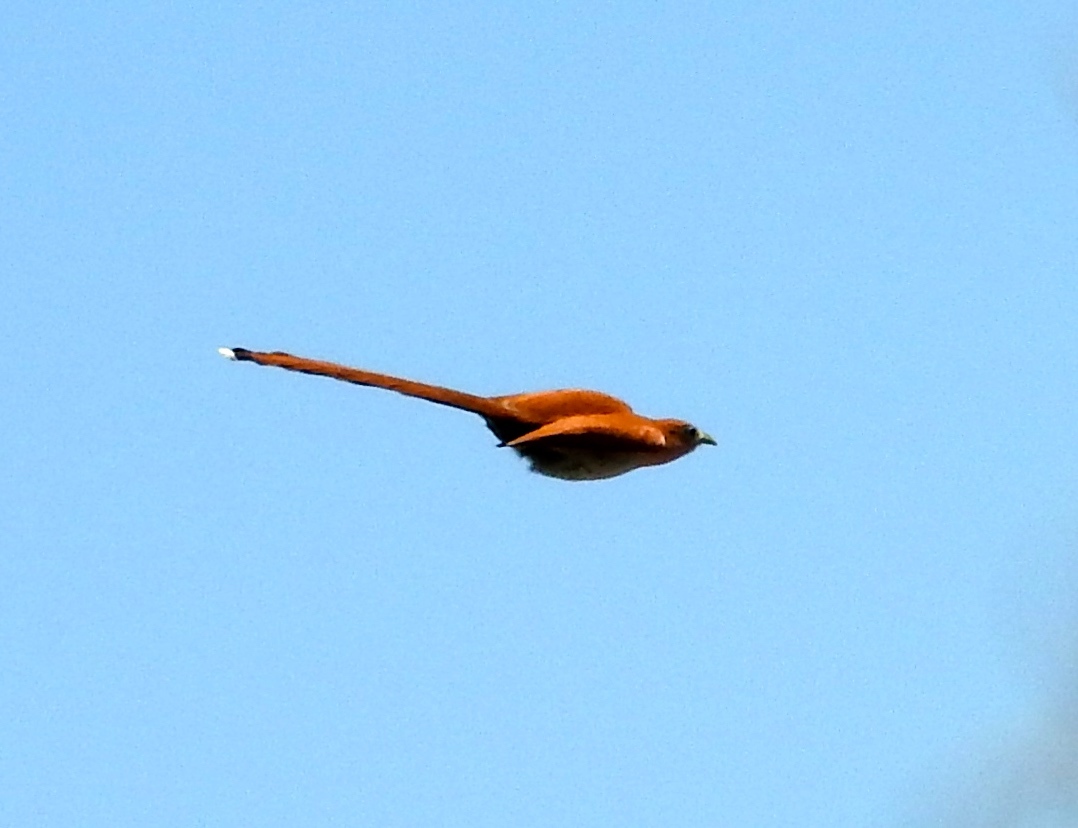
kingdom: Animalia
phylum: Chordata
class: Aves
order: Cuculiformes
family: Cuculidae
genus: Piaya
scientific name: Piaya cayana
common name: Squirrel cuckoo
